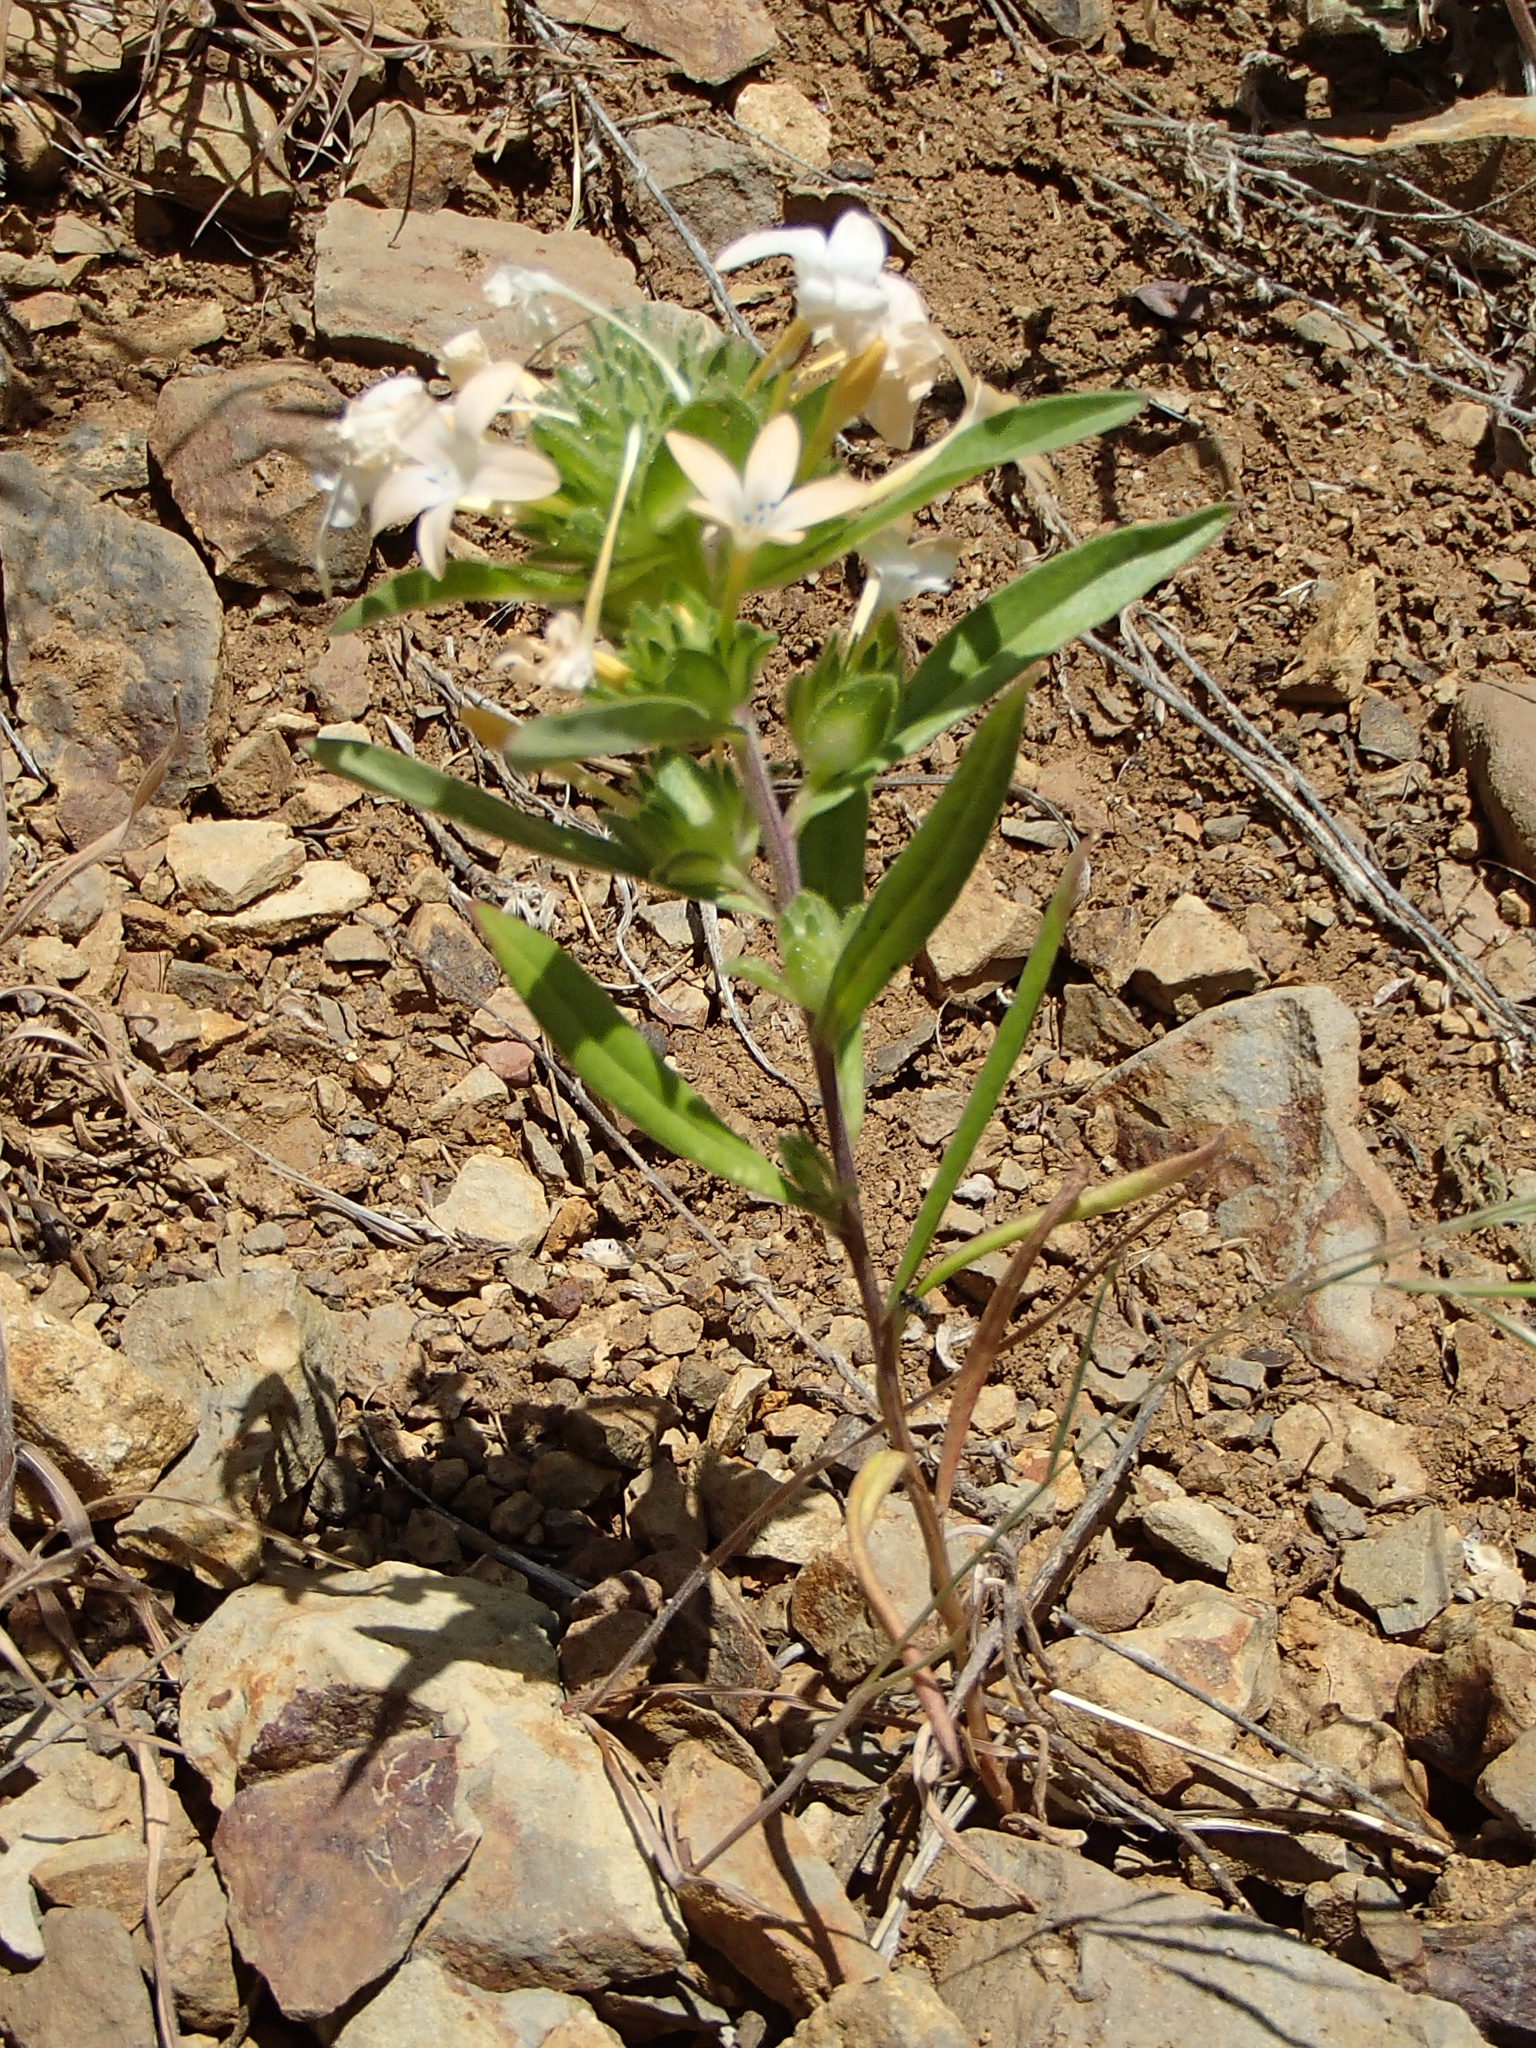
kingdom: Plantae
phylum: Tracheophyta
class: Magnoliopsida
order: Ericales
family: Polemoniaceae
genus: Collomia
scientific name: Collomia grandiflora
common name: California strawflower
